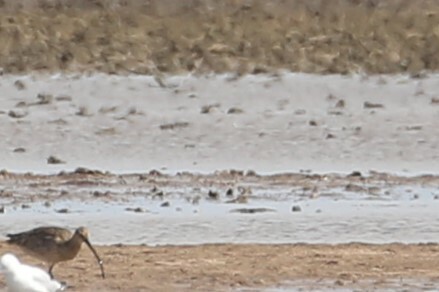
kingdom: Animalia
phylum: Chordata
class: Aves
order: Charadriiformes
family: Scolopacidae
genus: Numenius
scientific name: Numenius madagascariensis
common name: Far eastern curlew
